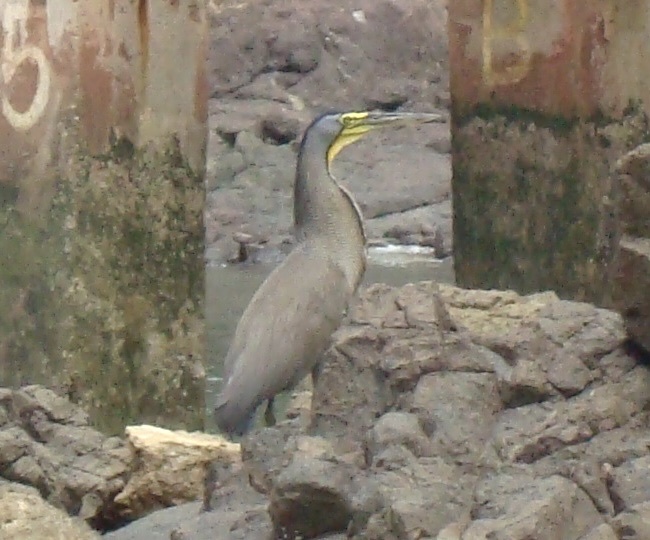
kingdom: Animalia
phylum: Chordata
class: Aves
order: Pelecaniformes
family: Ardeidae
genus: Tigrisoma
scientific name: Tigrisoma mexicanum
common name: Bare-throated tiger-heron
